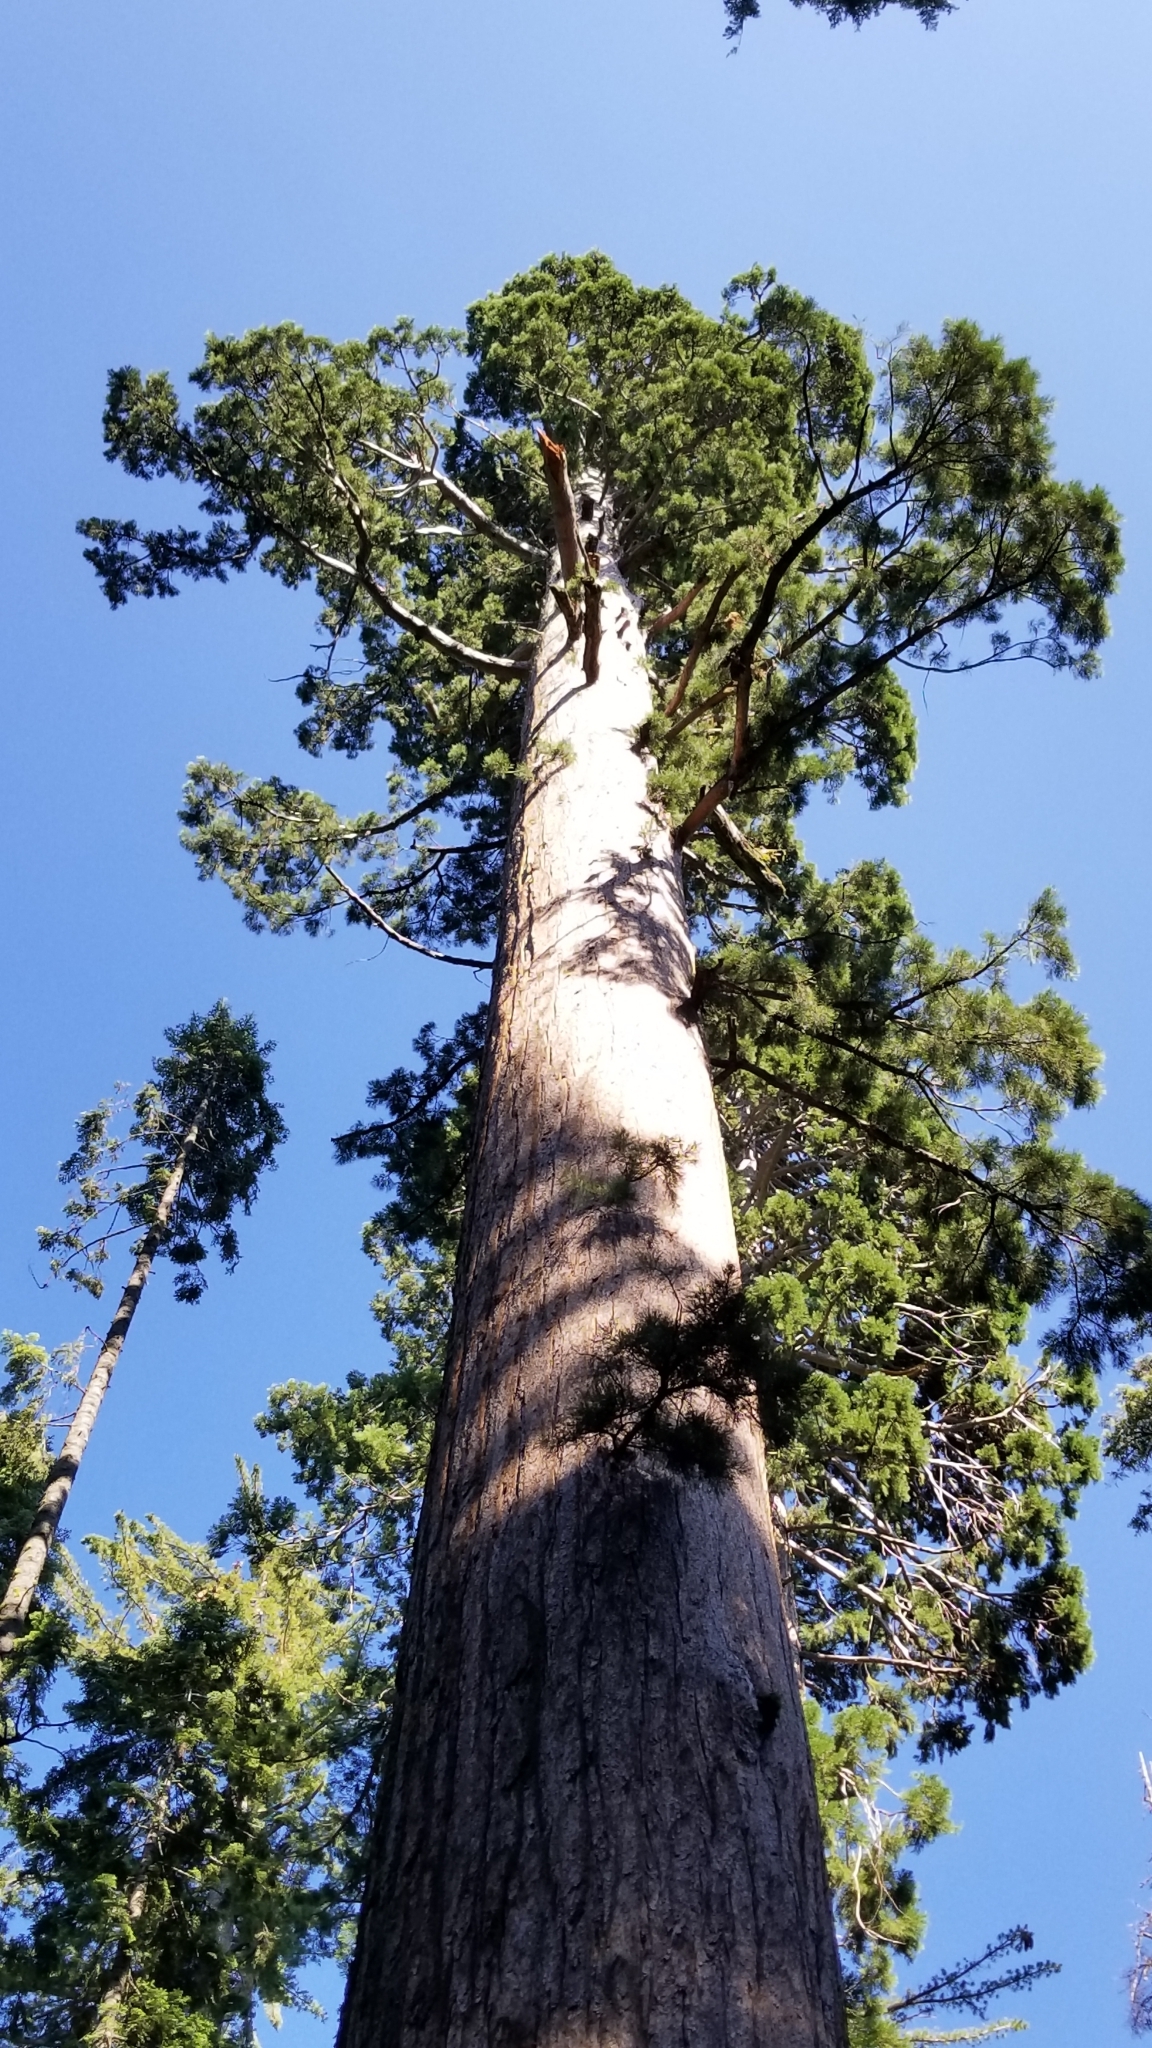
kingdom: Plantae
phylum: Tracheophyta
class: Pinopsida
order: Pinales
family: Cupressaceae
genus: Sequoiadendron
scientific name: Sequoiadendron giganteum
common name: Wellingtonia
